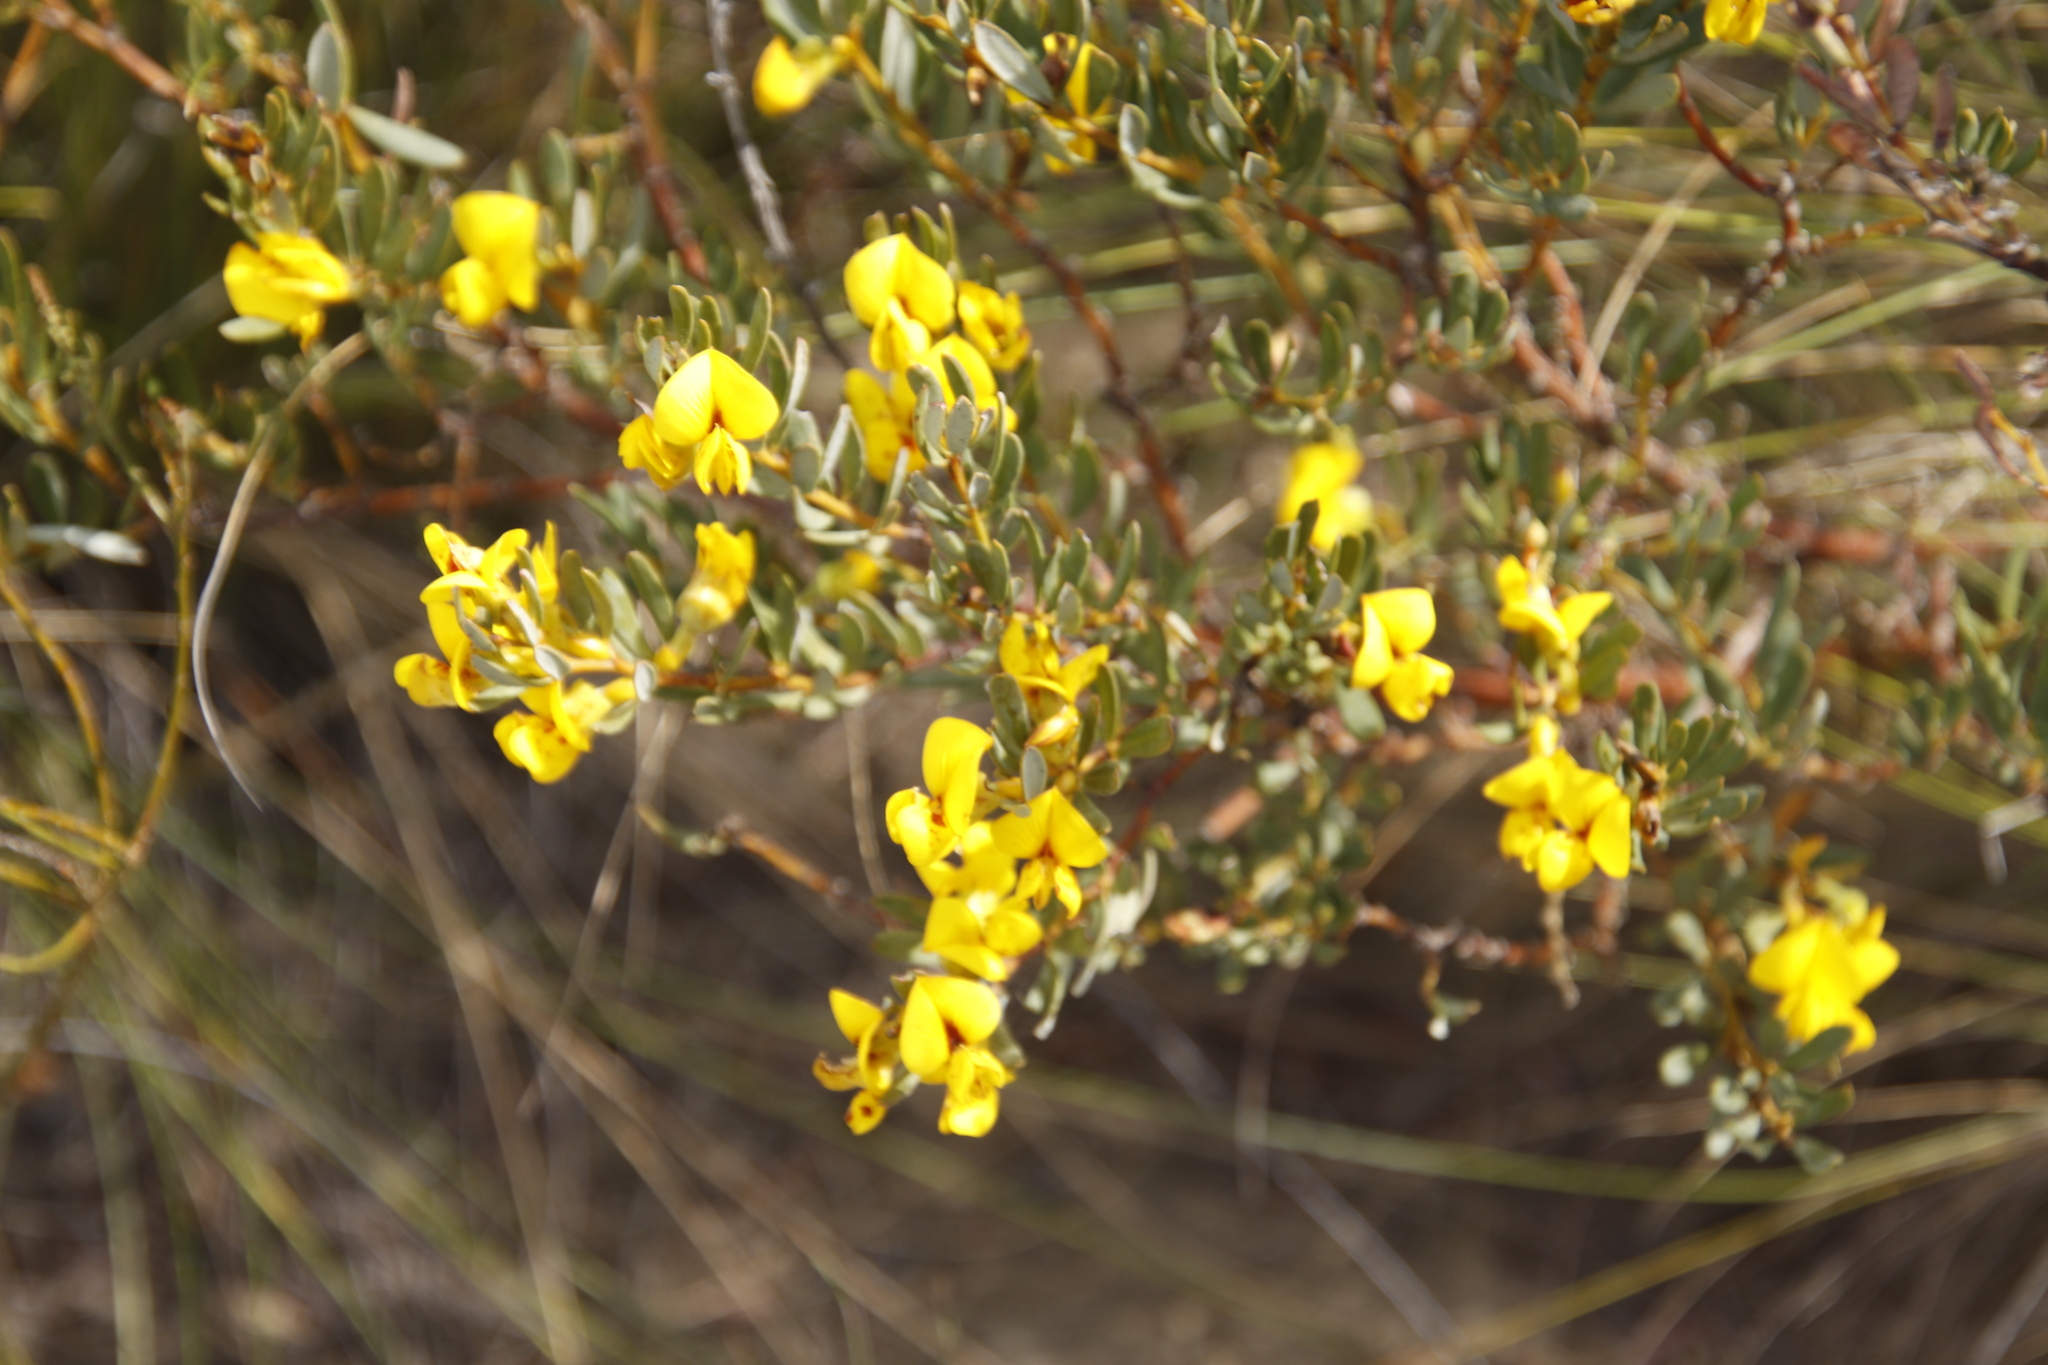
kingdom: Plantae
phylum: Tracheophyta
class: Magnoliopsida
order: Fabales
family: Fabaceae
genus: Cyclopia
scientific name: Cyclopia intermedia
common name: Mountain tea
